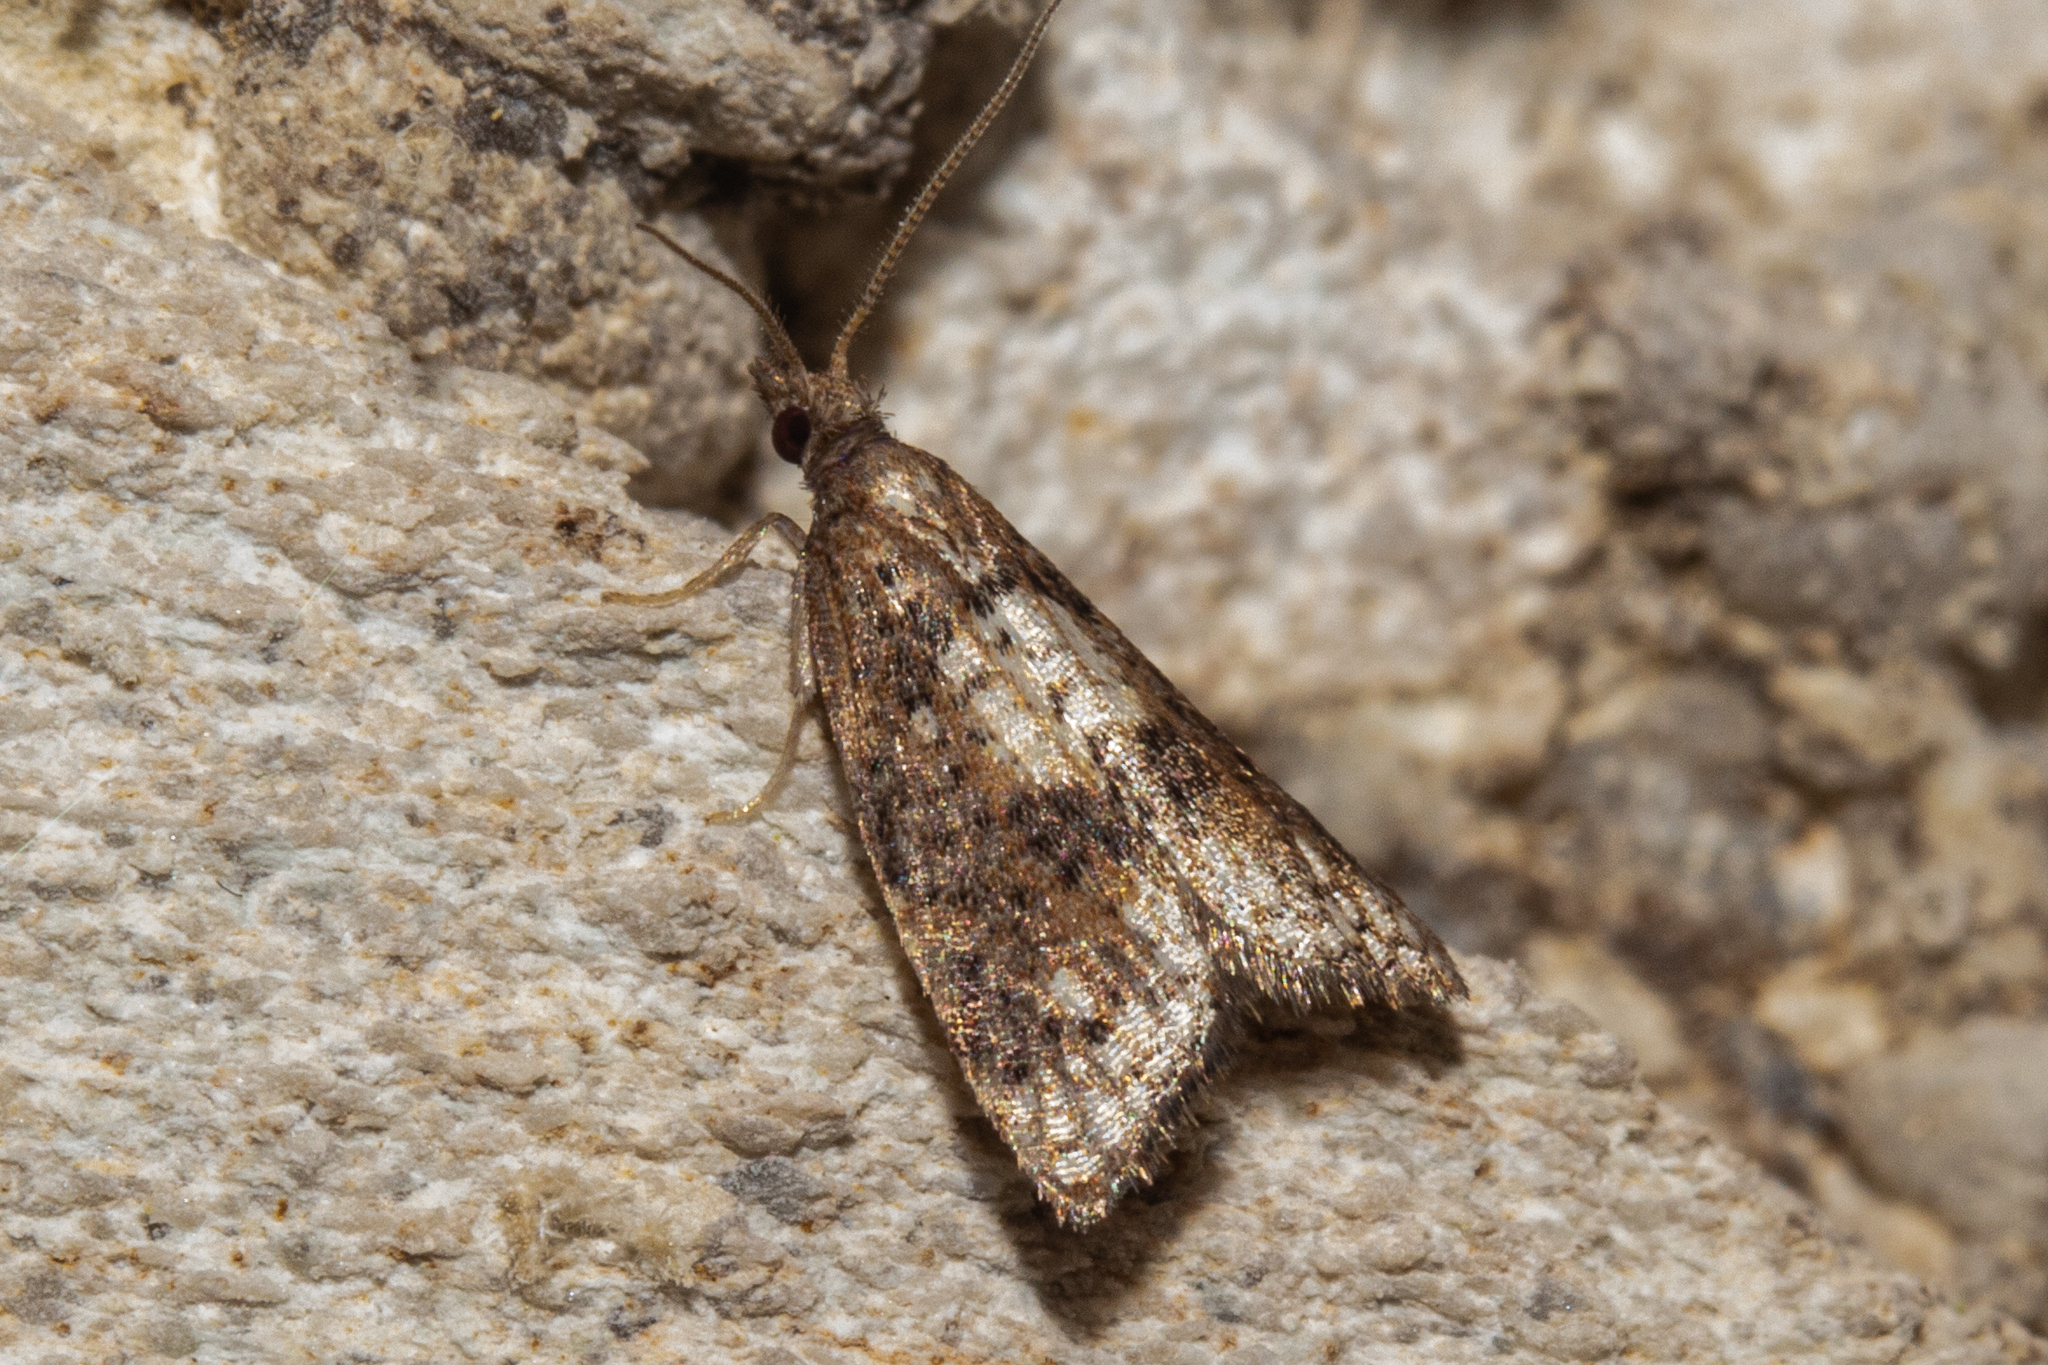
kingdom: Animalia
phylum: Arthropoda
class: Insecta
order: Lepidoptera
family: Tortricidae
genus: Catamacta
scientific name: Catamacta gavisana
